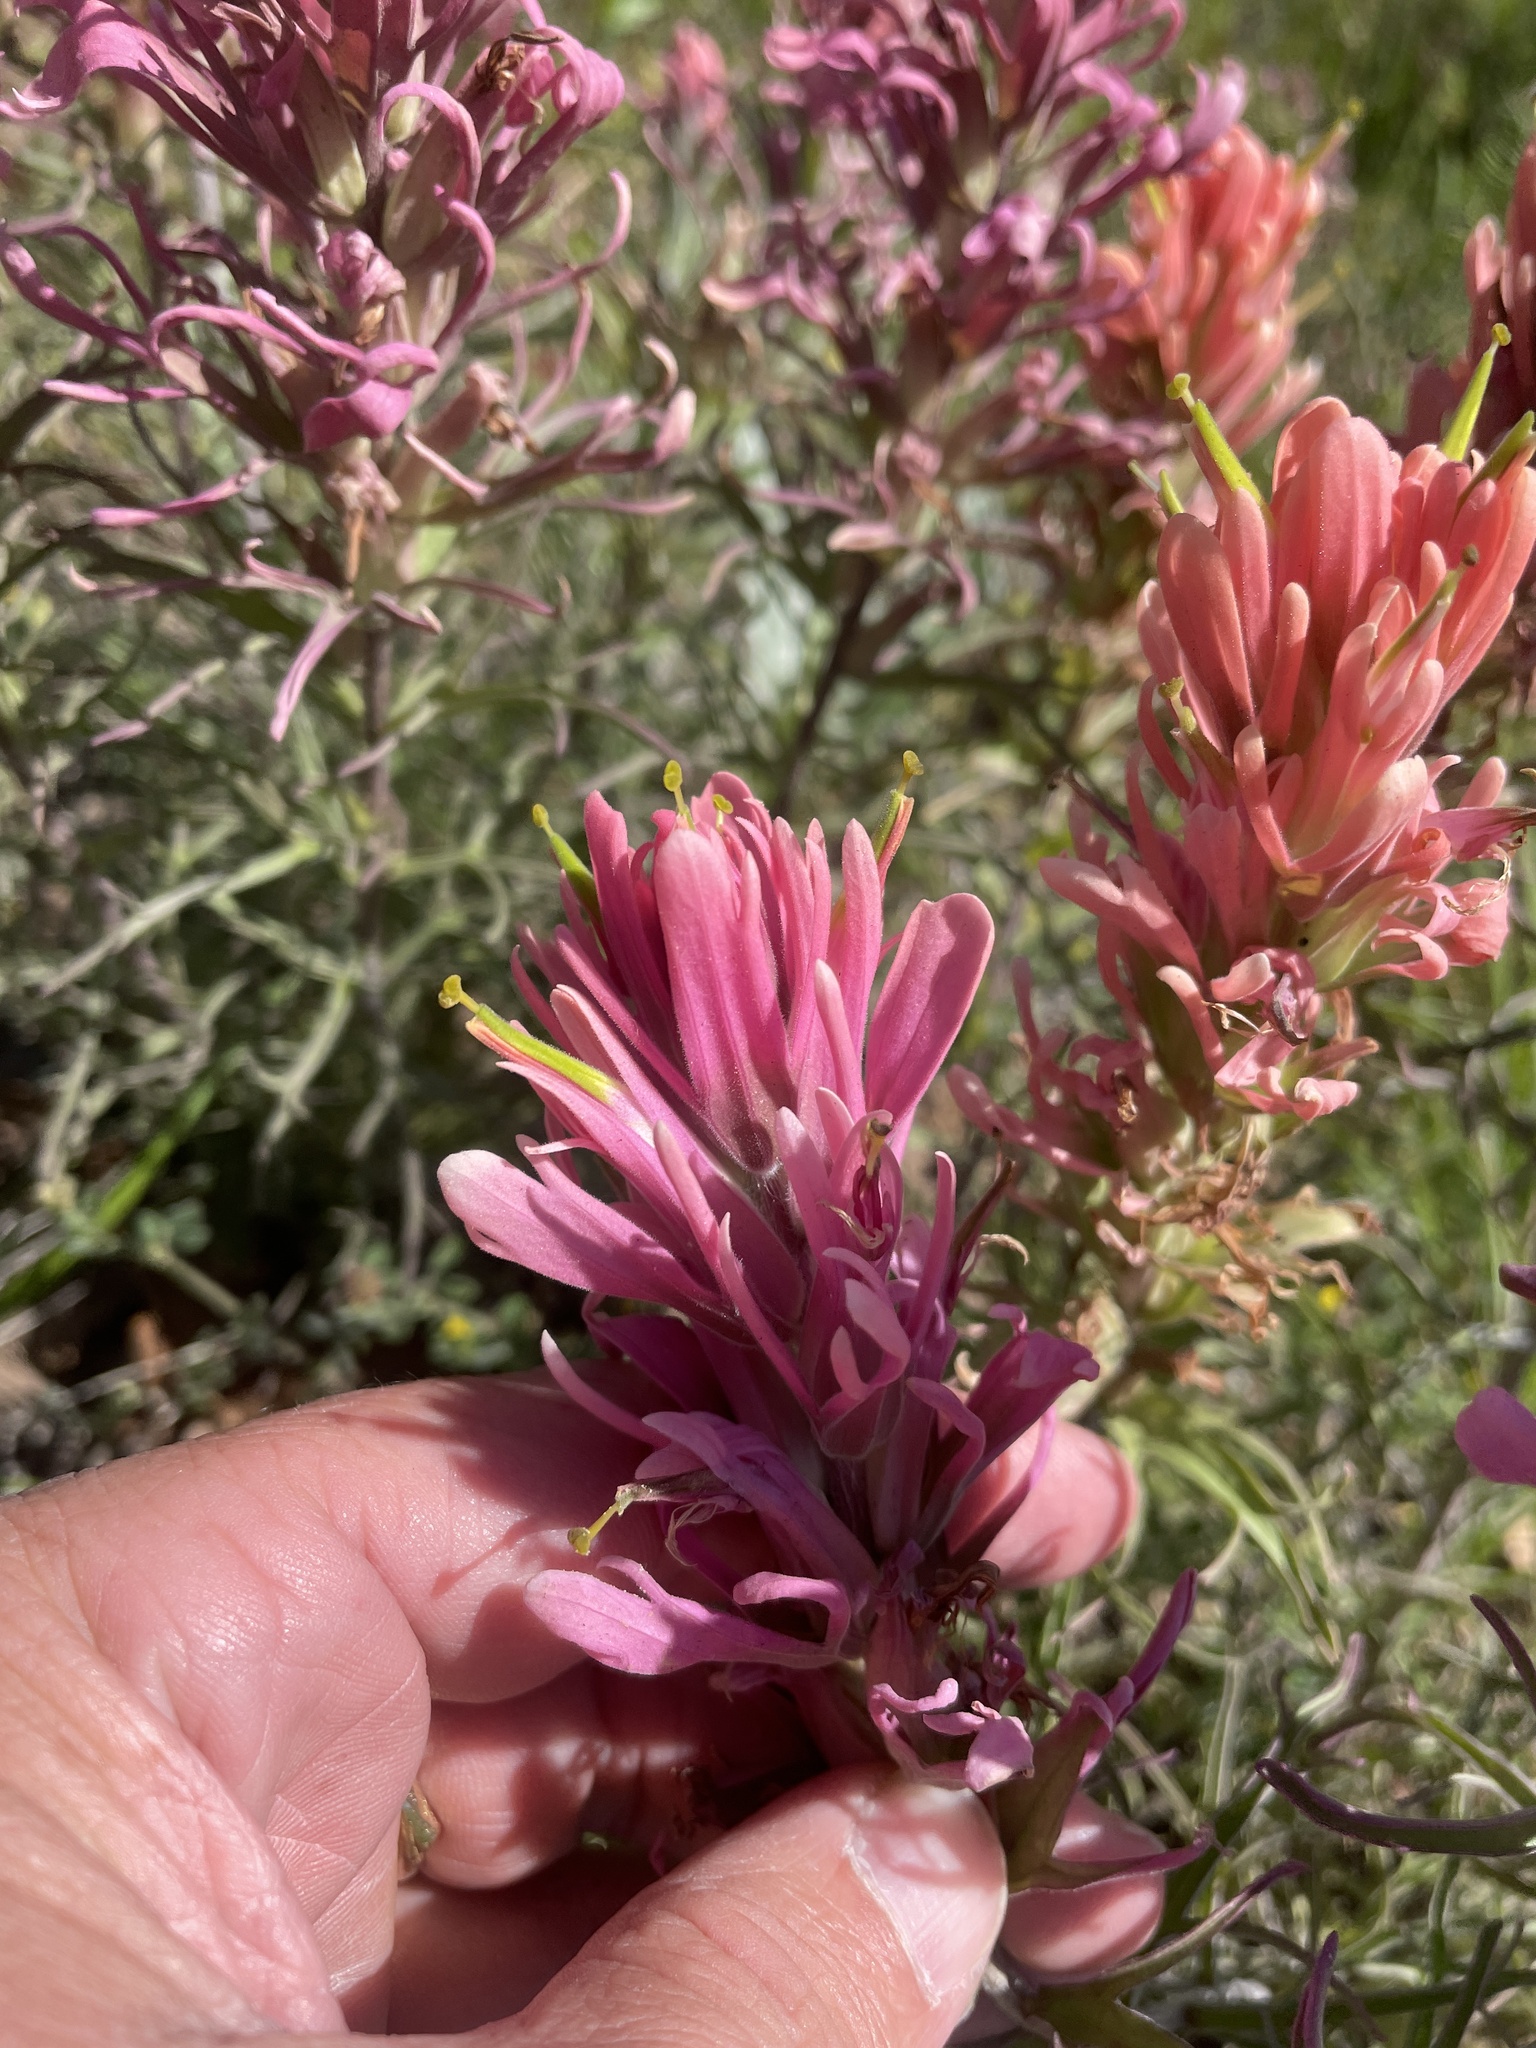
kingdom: Plantae
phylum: Tracheophyta
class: Magnoliopsida
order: Lamiales
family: Orobanchaceae
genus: Castilleja
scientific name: Castilleja purpurea
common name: Plains paintbrush
